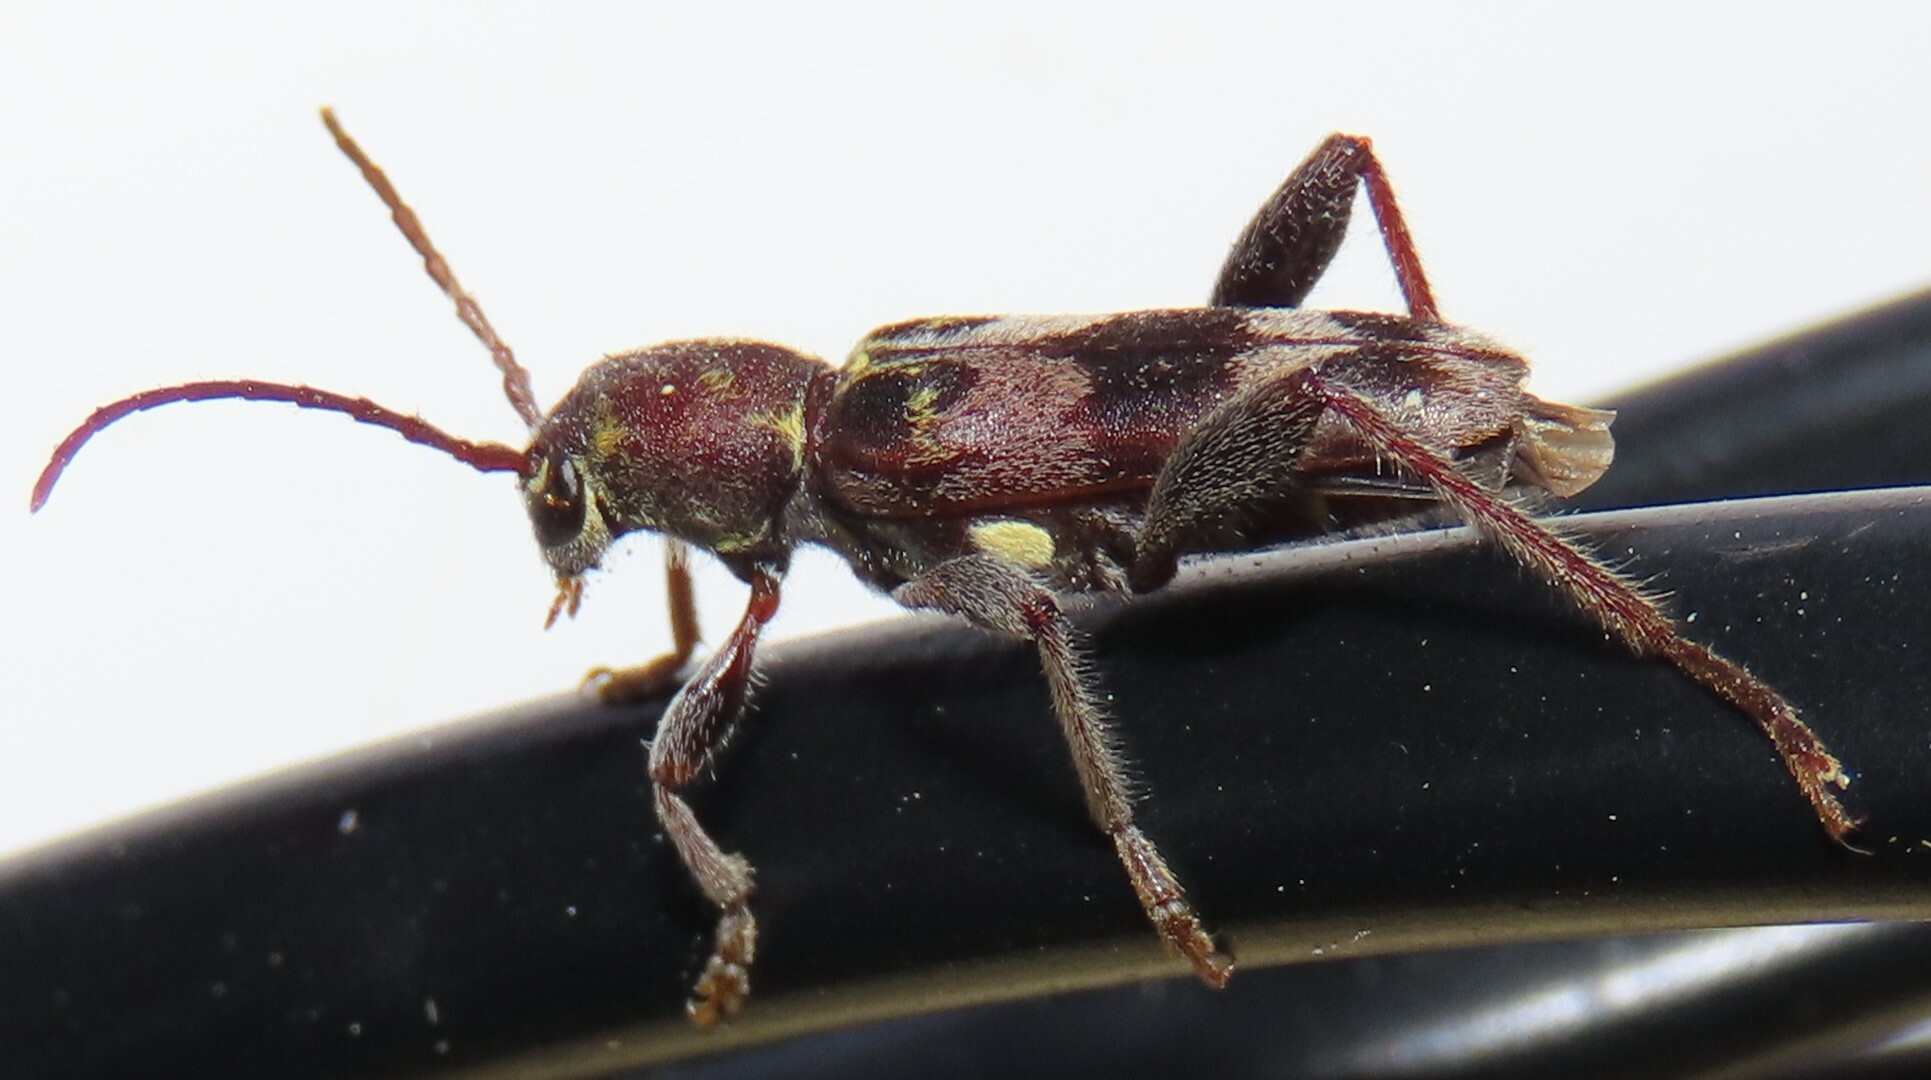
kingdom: Animalia
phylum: Arthropoda
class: Insecta
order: Coleoptera
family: Cerambycidae
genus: Xylotrechus
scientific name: Xylotrechus colonus
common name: Long-horned beetle
